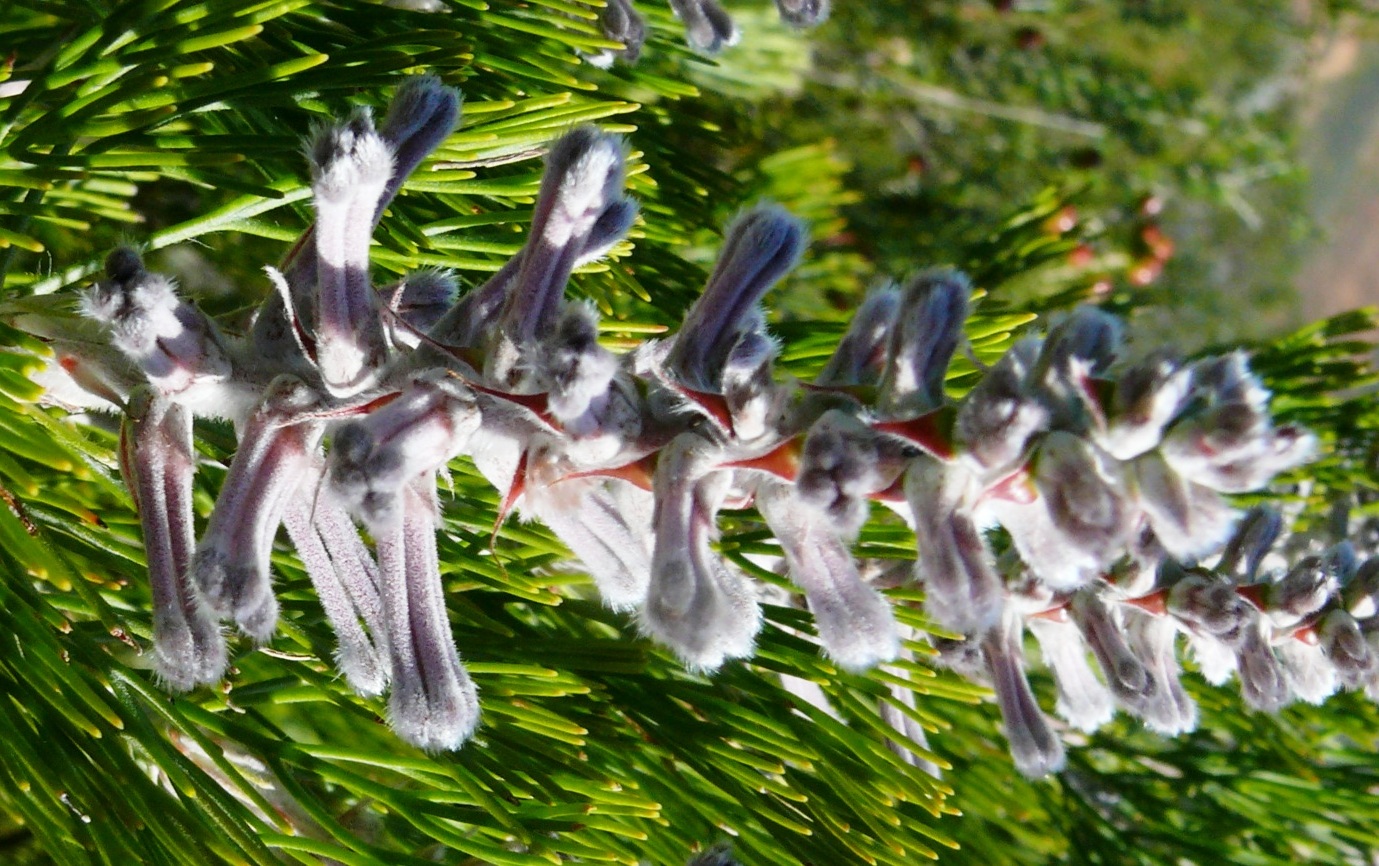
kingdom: Plantae
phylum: Tracheophyta
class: Magnoliopsida
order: Proteales
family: Proteaceae
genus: Paranomus
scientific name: Paranomus bracteolaris
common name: Bokkeveld tree sceptre
